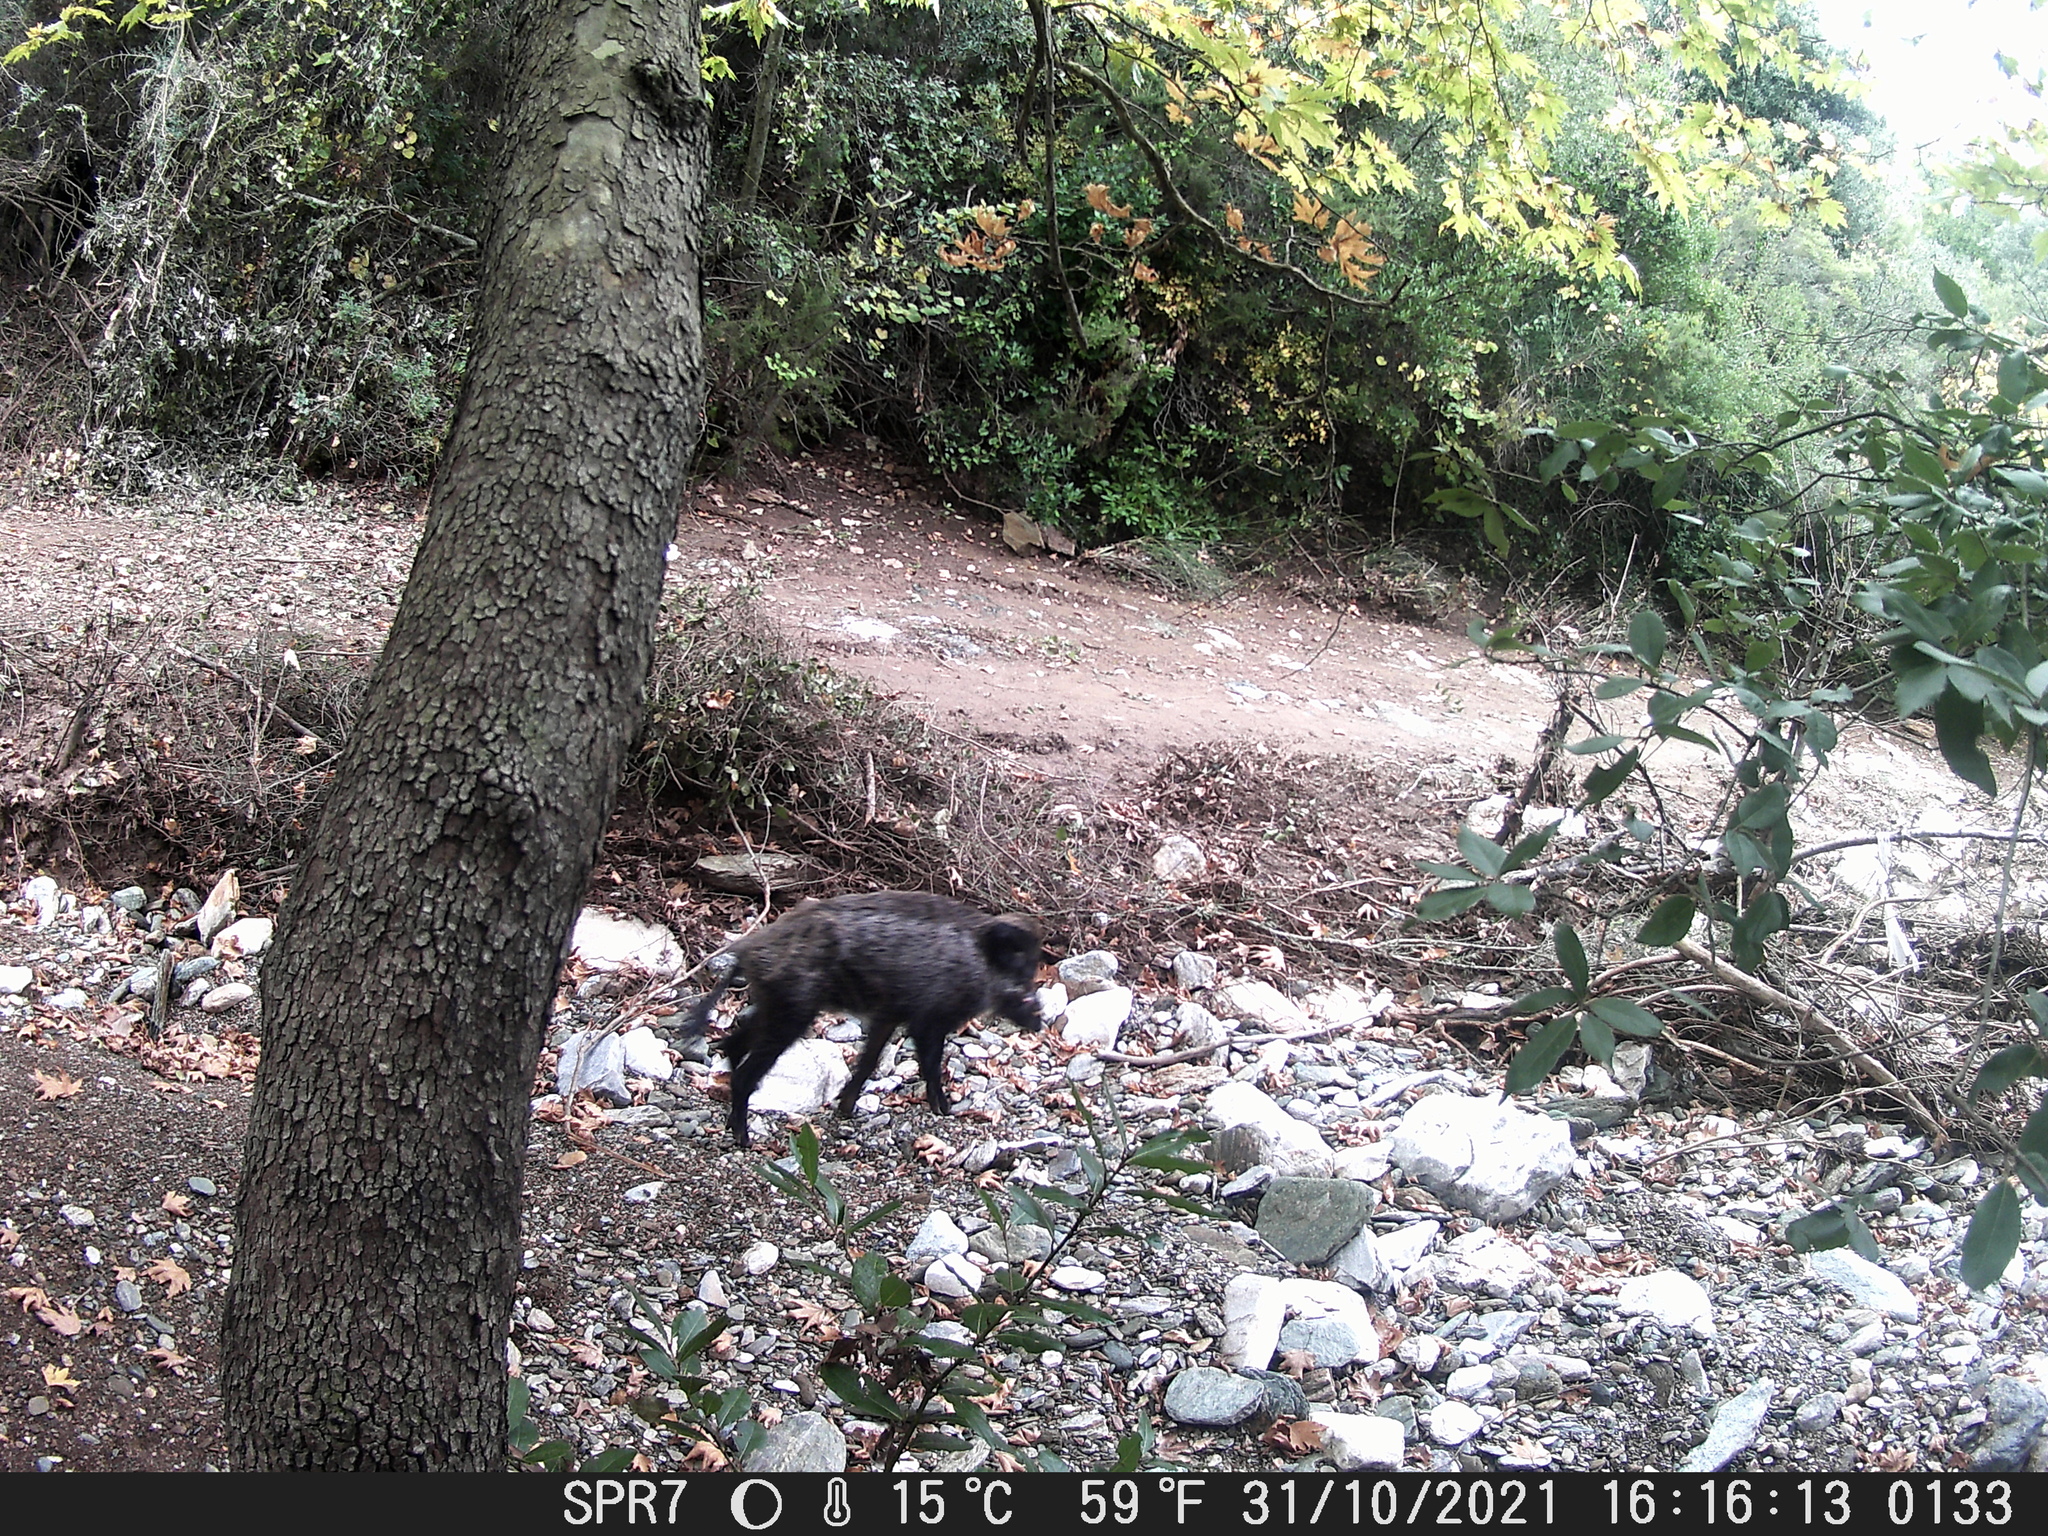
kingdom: Animalia
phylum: Chordata
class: Mammalia
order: Artiodactyla
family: Suidae
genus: Sus
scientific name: Sus scrofa
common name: Wild boar
